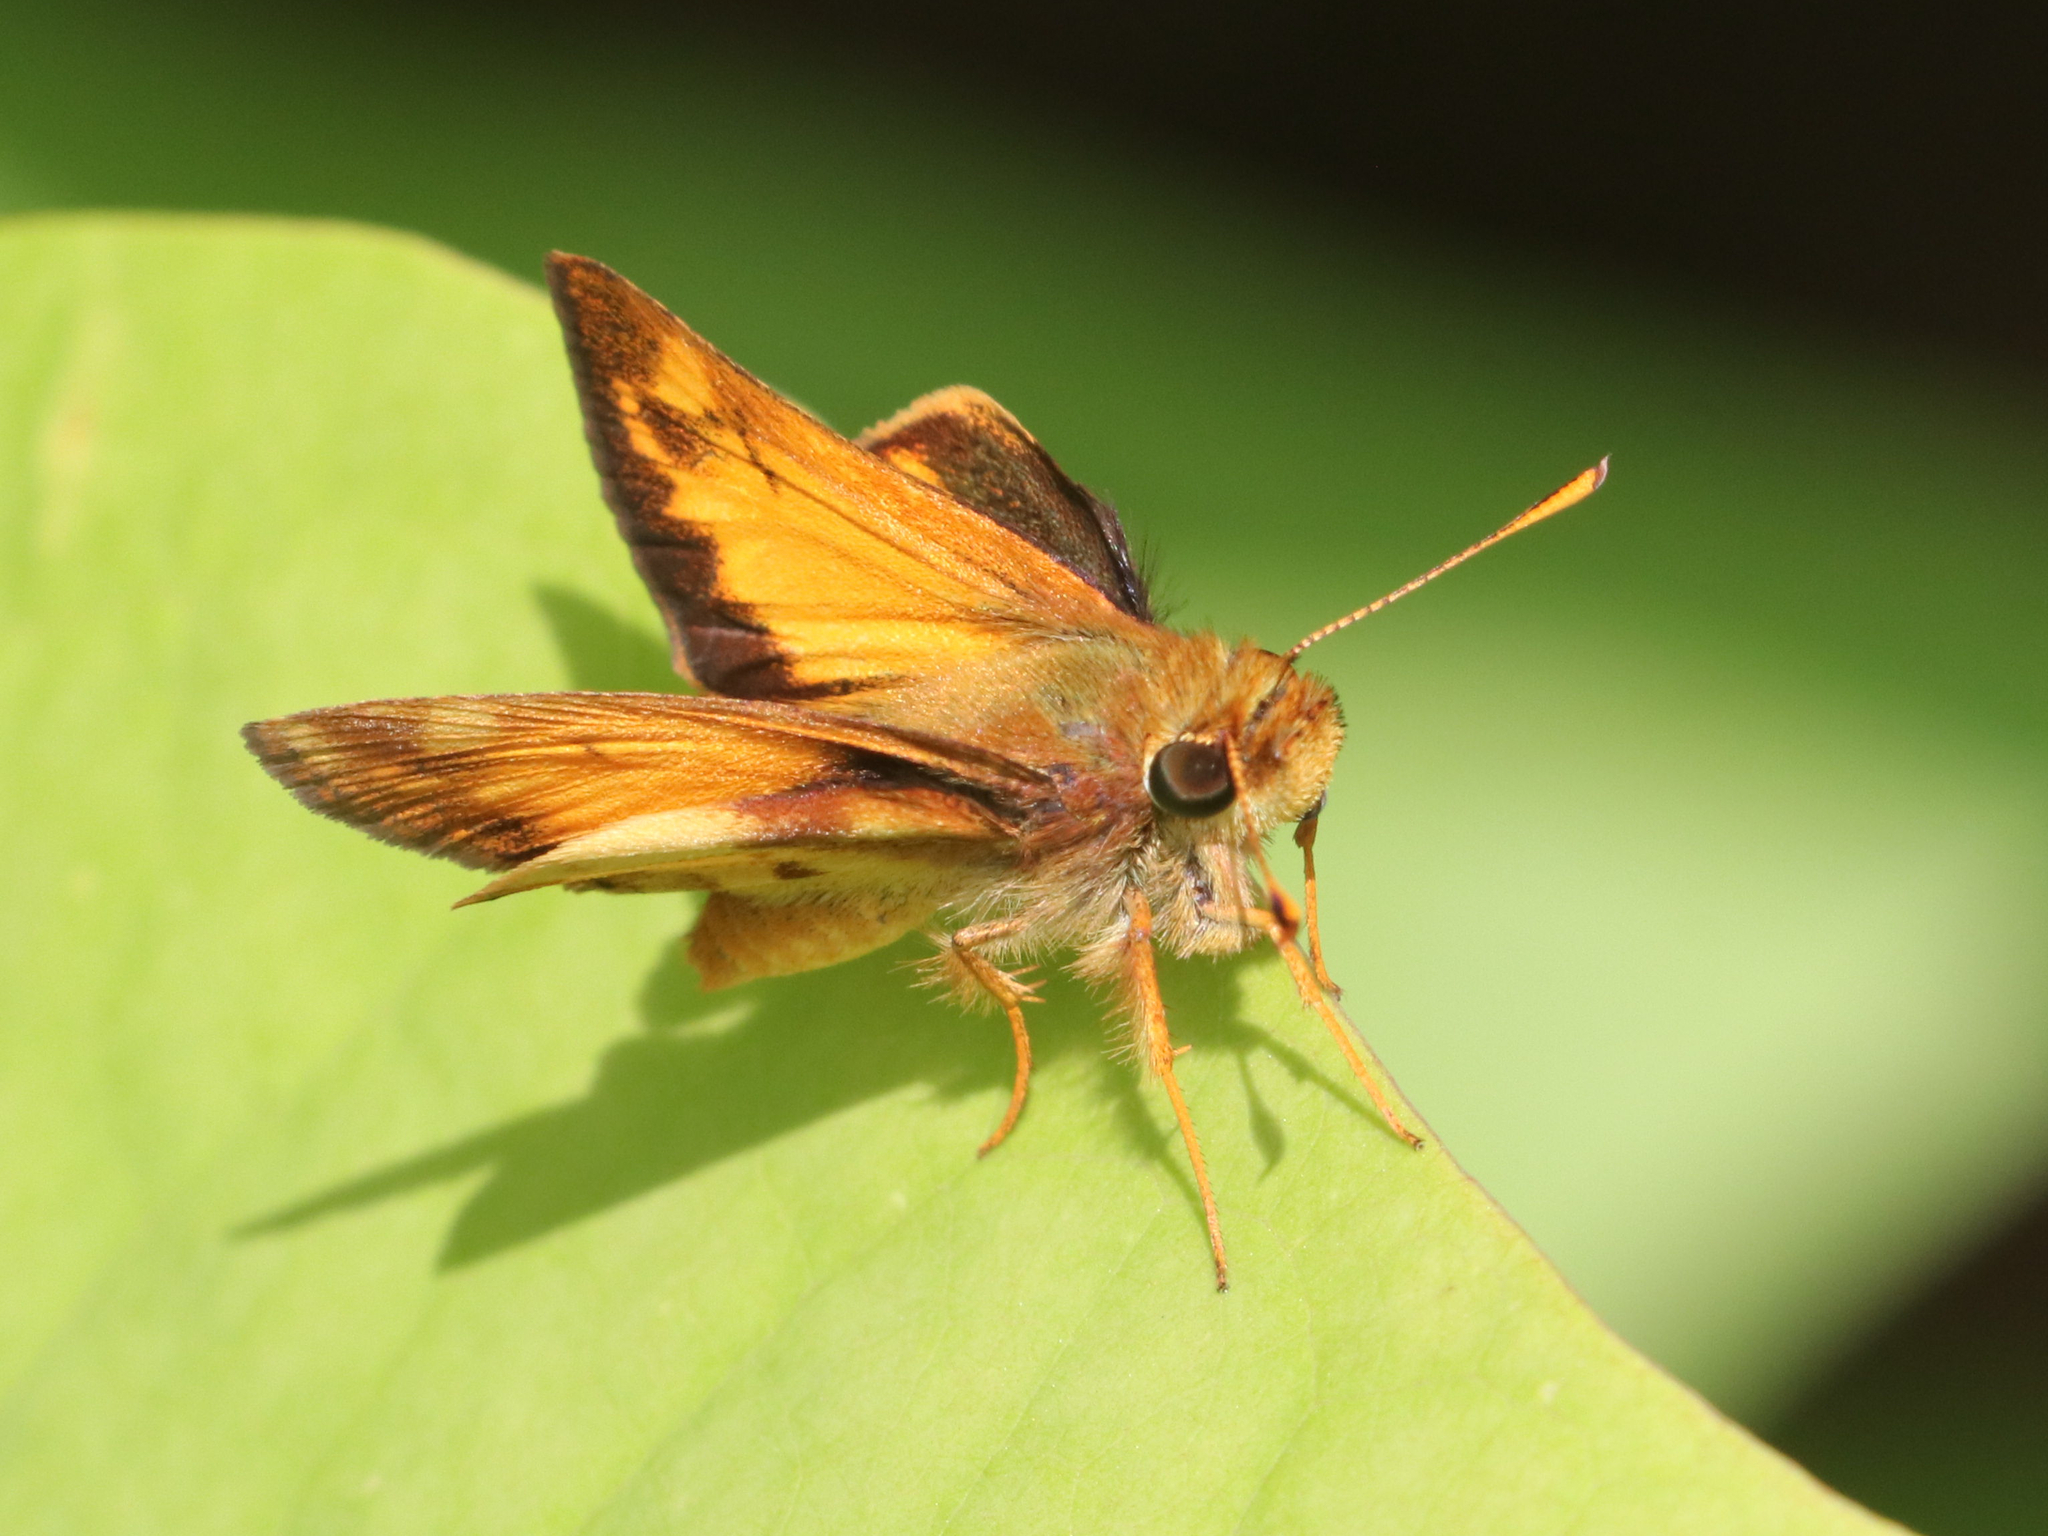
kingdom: Animalia
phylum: Arthropoda
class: Insecta
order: Lepidoptera
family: Hesperiidae
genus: Lon
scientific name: Lon zabulon
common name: Zabulon skipper
